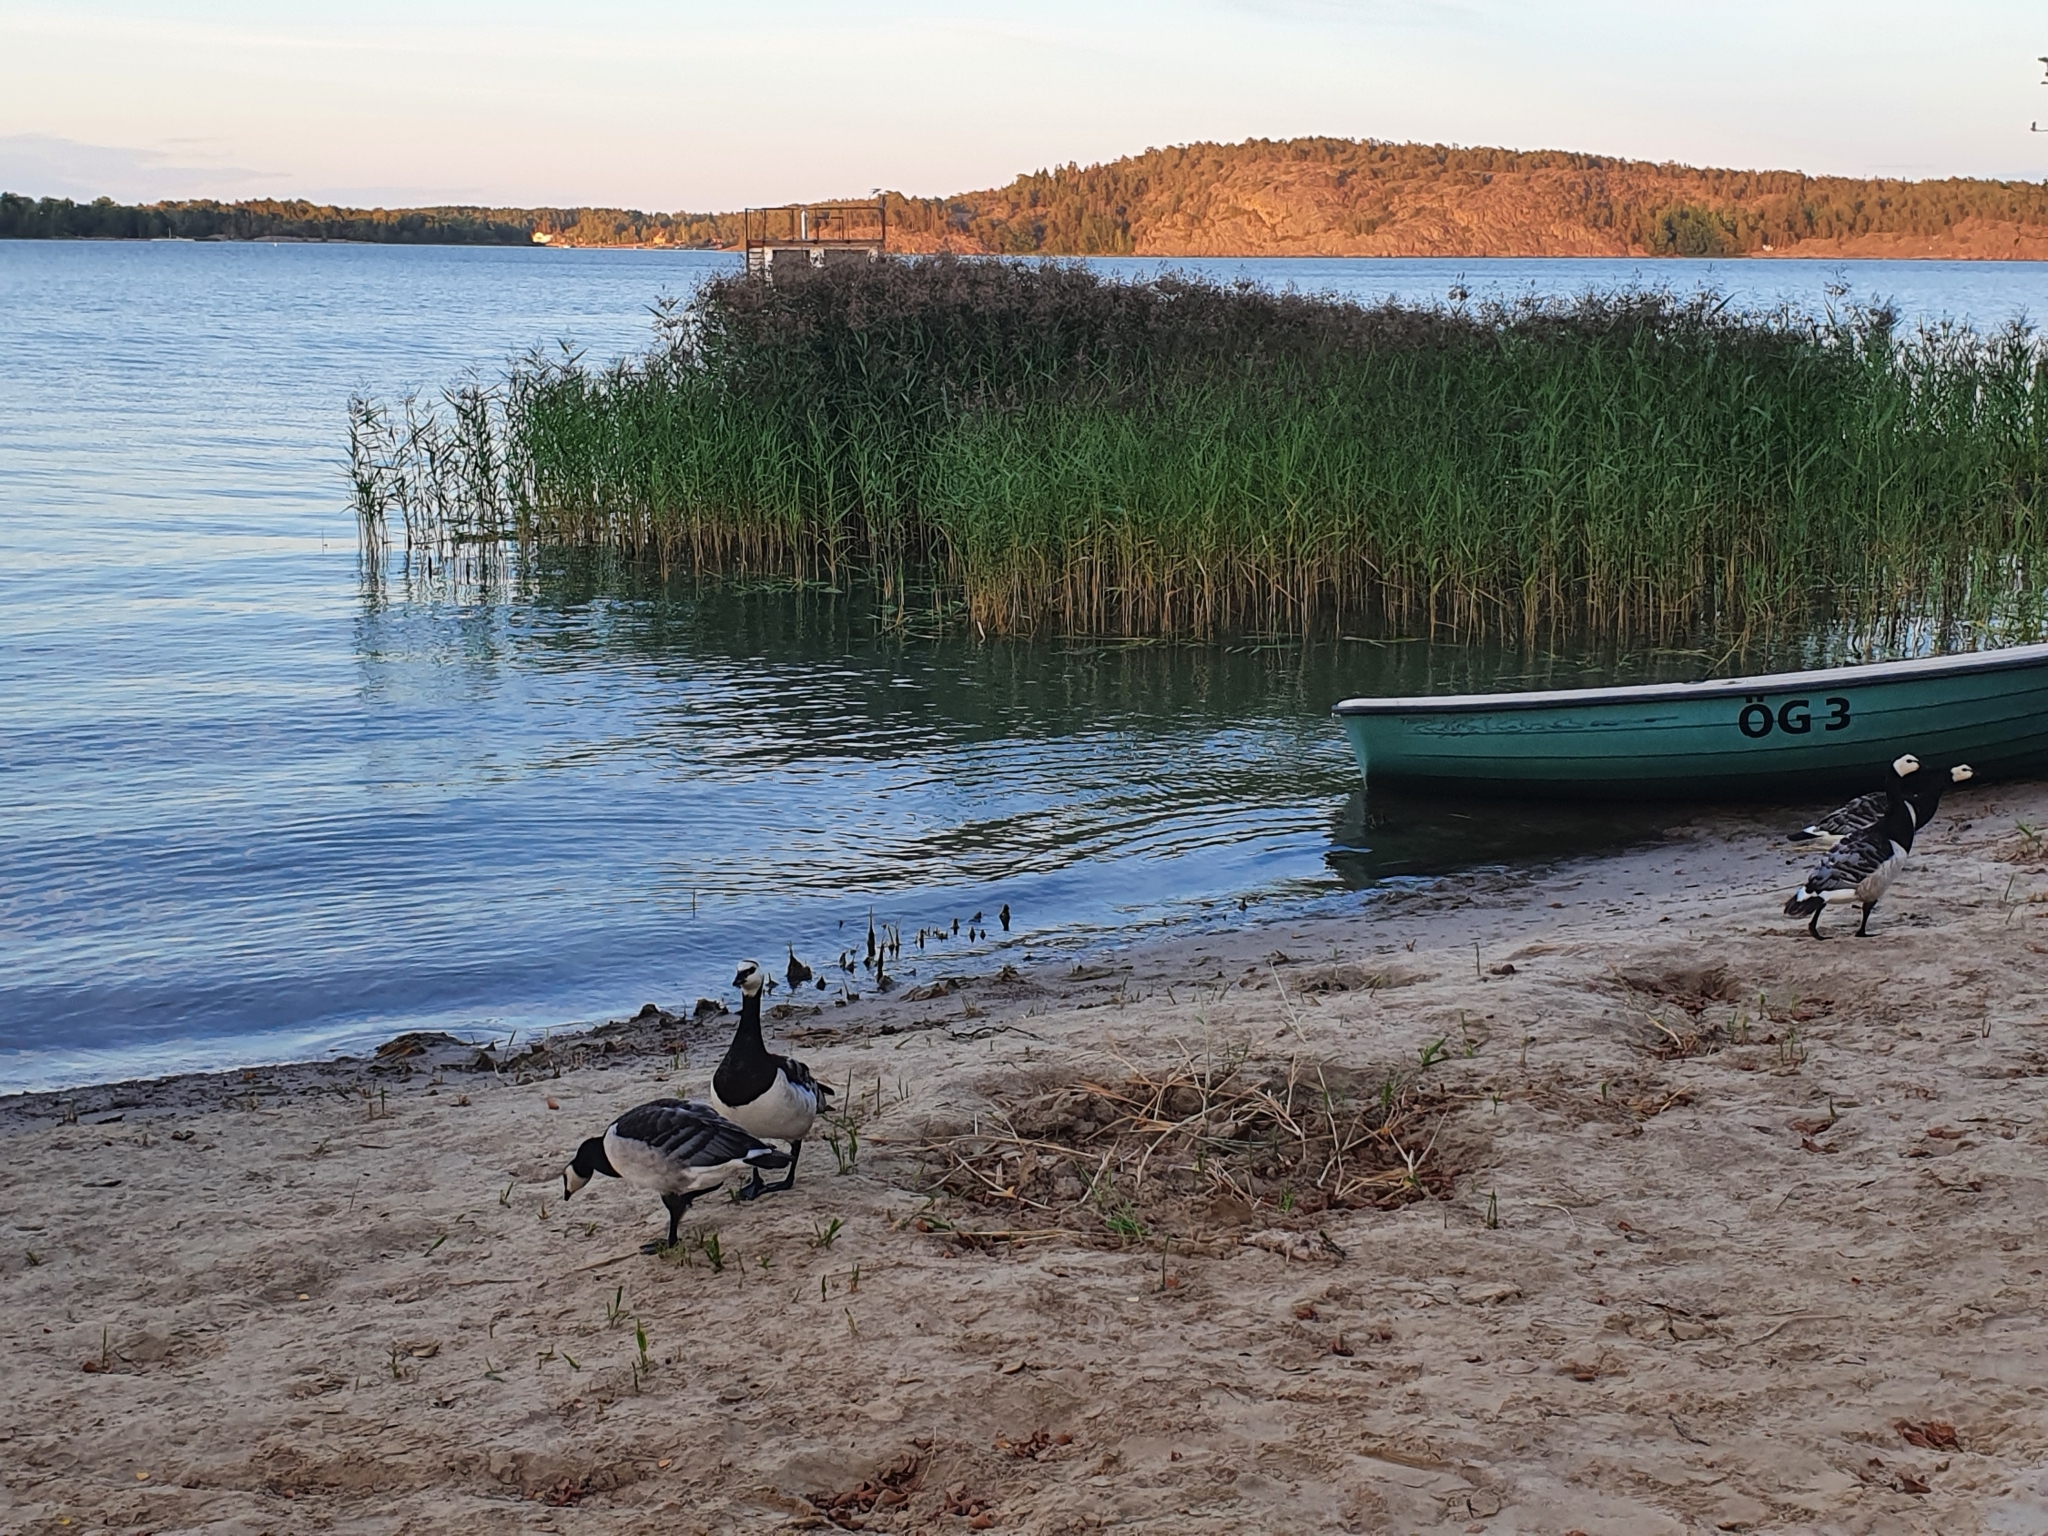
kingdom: Animalia
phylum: Chordata
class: Aves
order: Anseriformes
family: Anatidae
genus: Branta
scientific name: Branta leucopsis
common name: Barnacle goose
